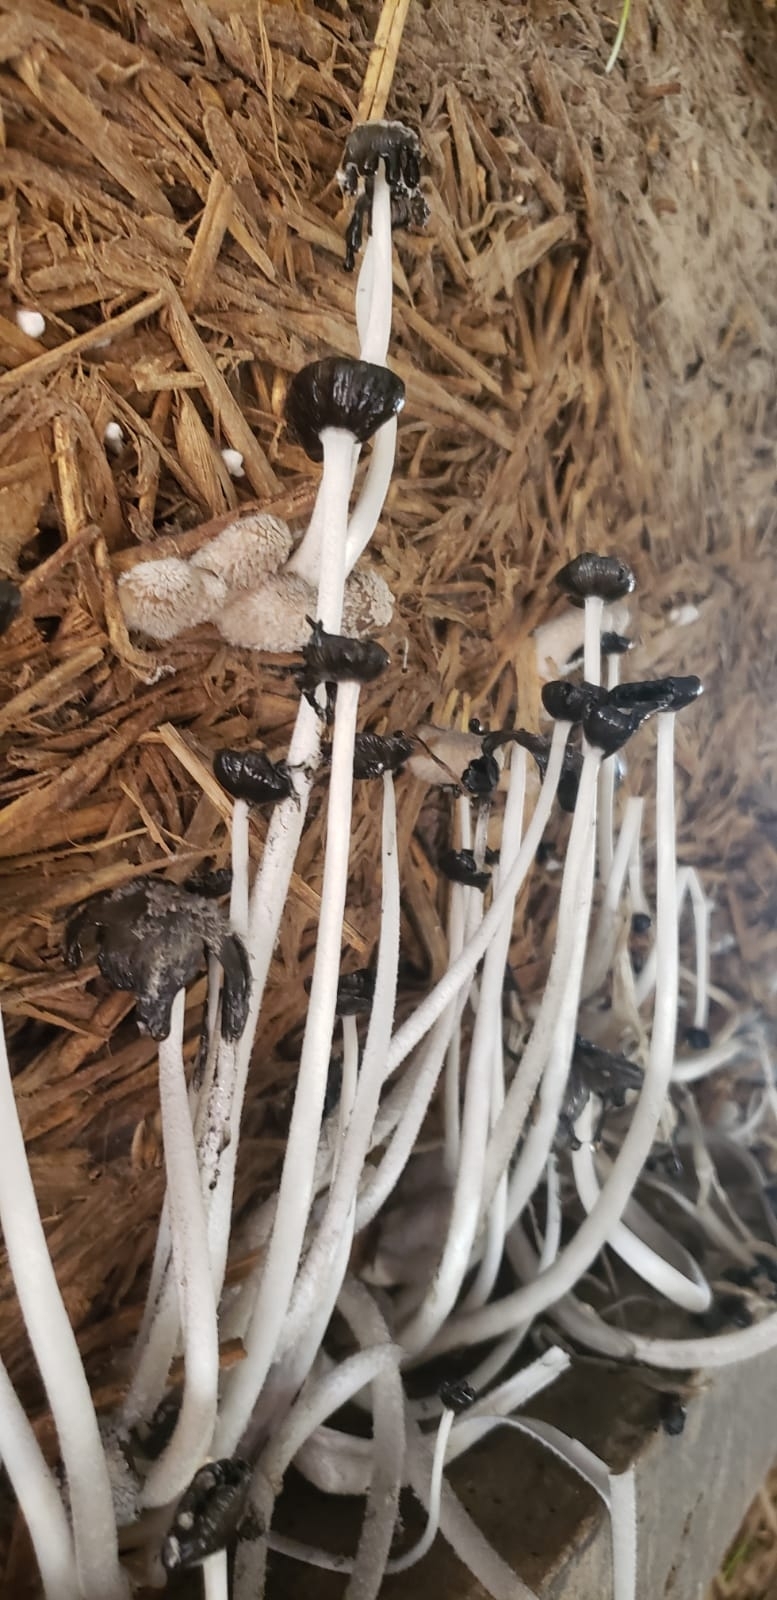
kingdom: Fungi
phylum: Basidiomycota
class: Agaricomycetes
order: Agaricales
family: Psathyrellaceae
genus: Coprinopsis
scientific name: Coprinopsis lagopus
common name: Hare'sfoot inkcap
